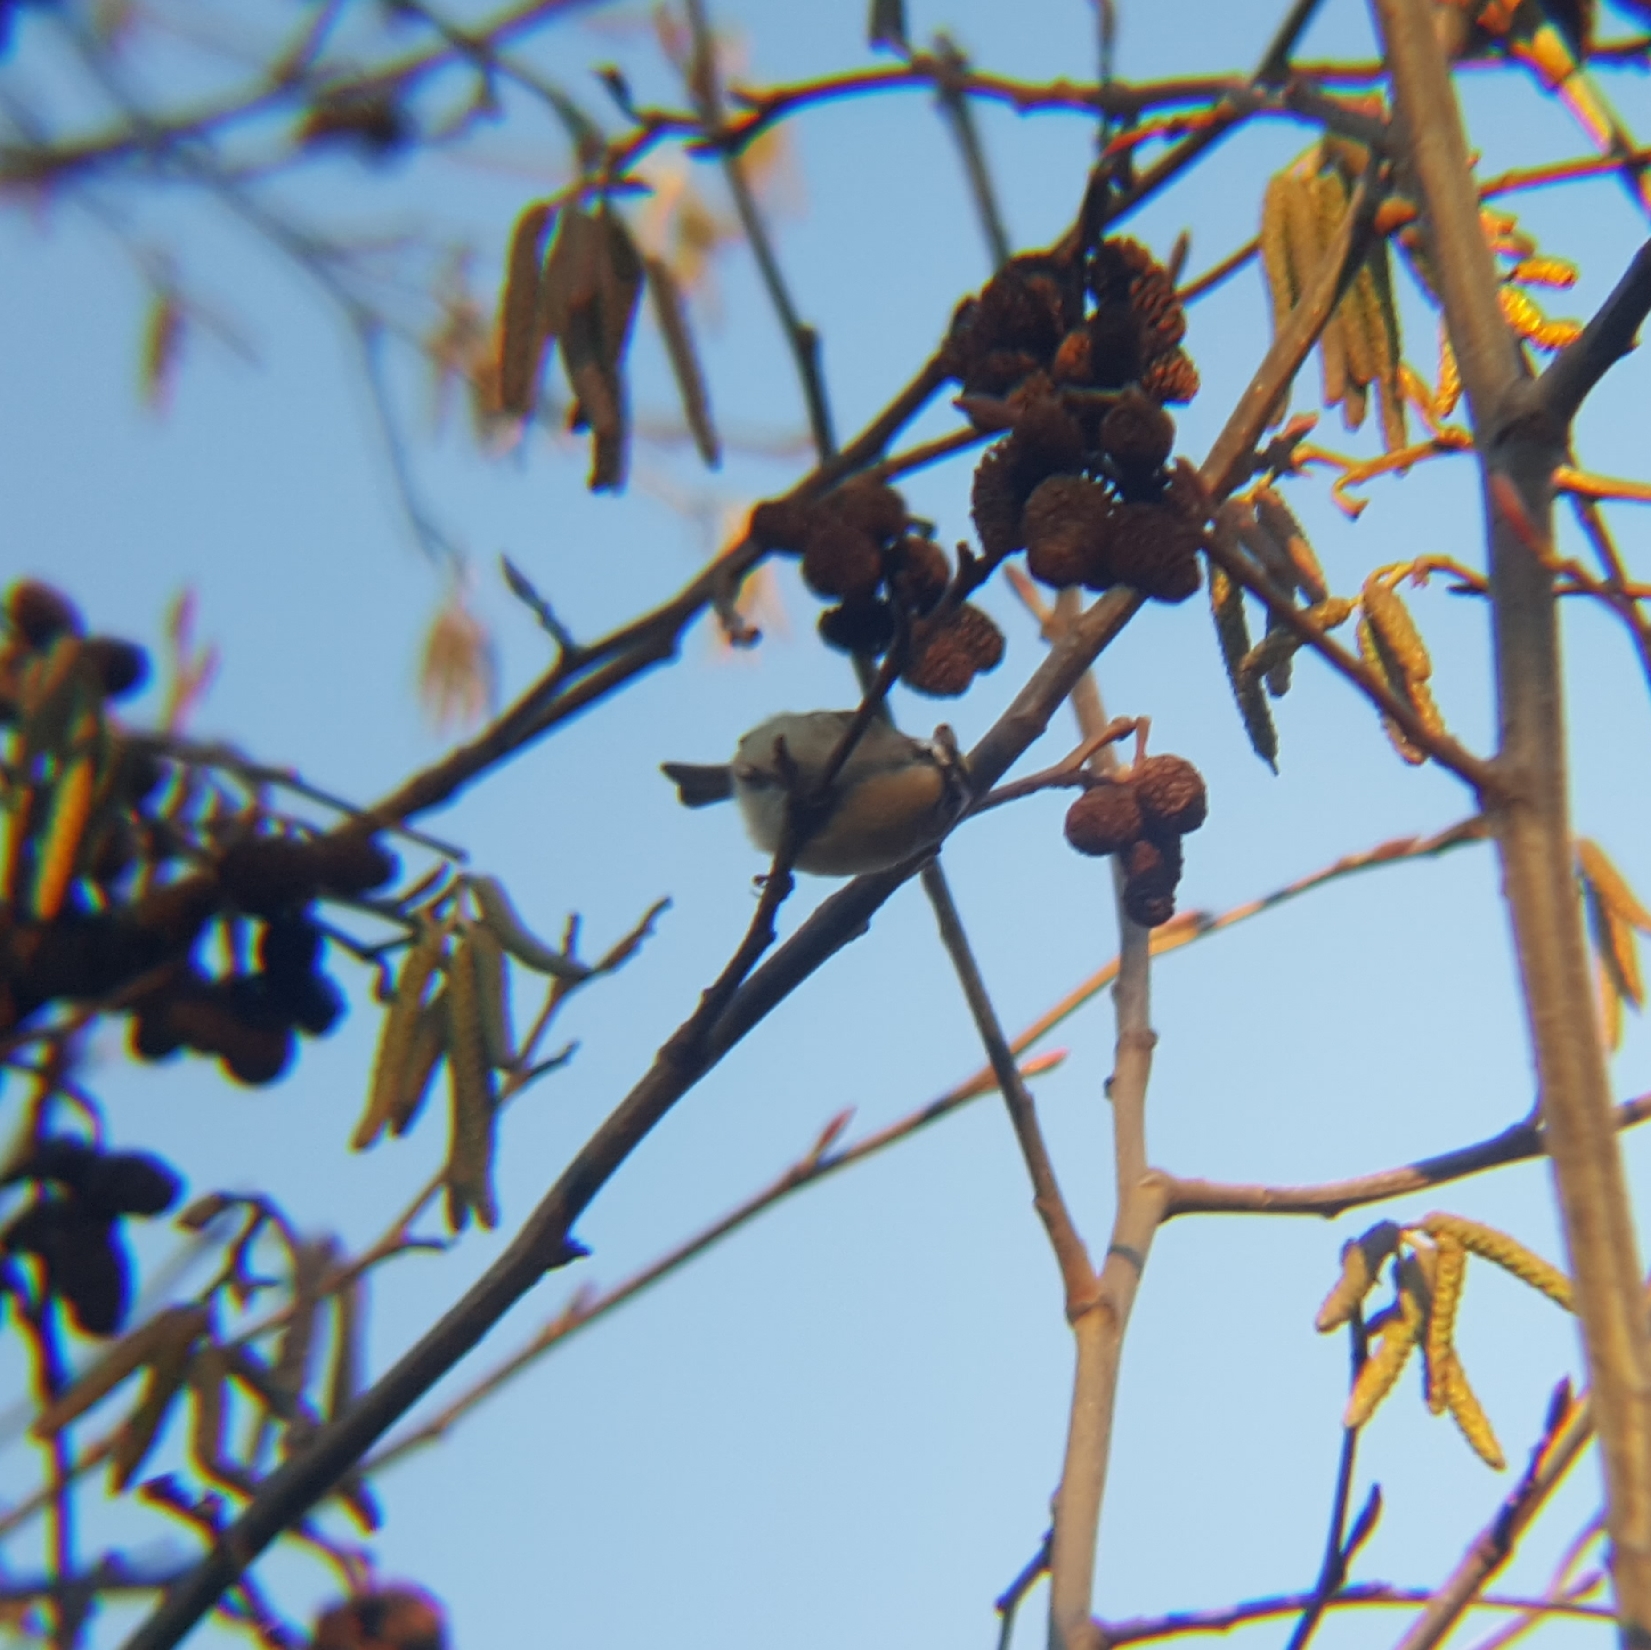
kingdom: Animalia
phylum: Chordata
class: Aves
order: Passeriformes
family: Regulidae
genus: Regulus
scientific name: Regulus satrapa
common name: Golden-crowned kinglet
